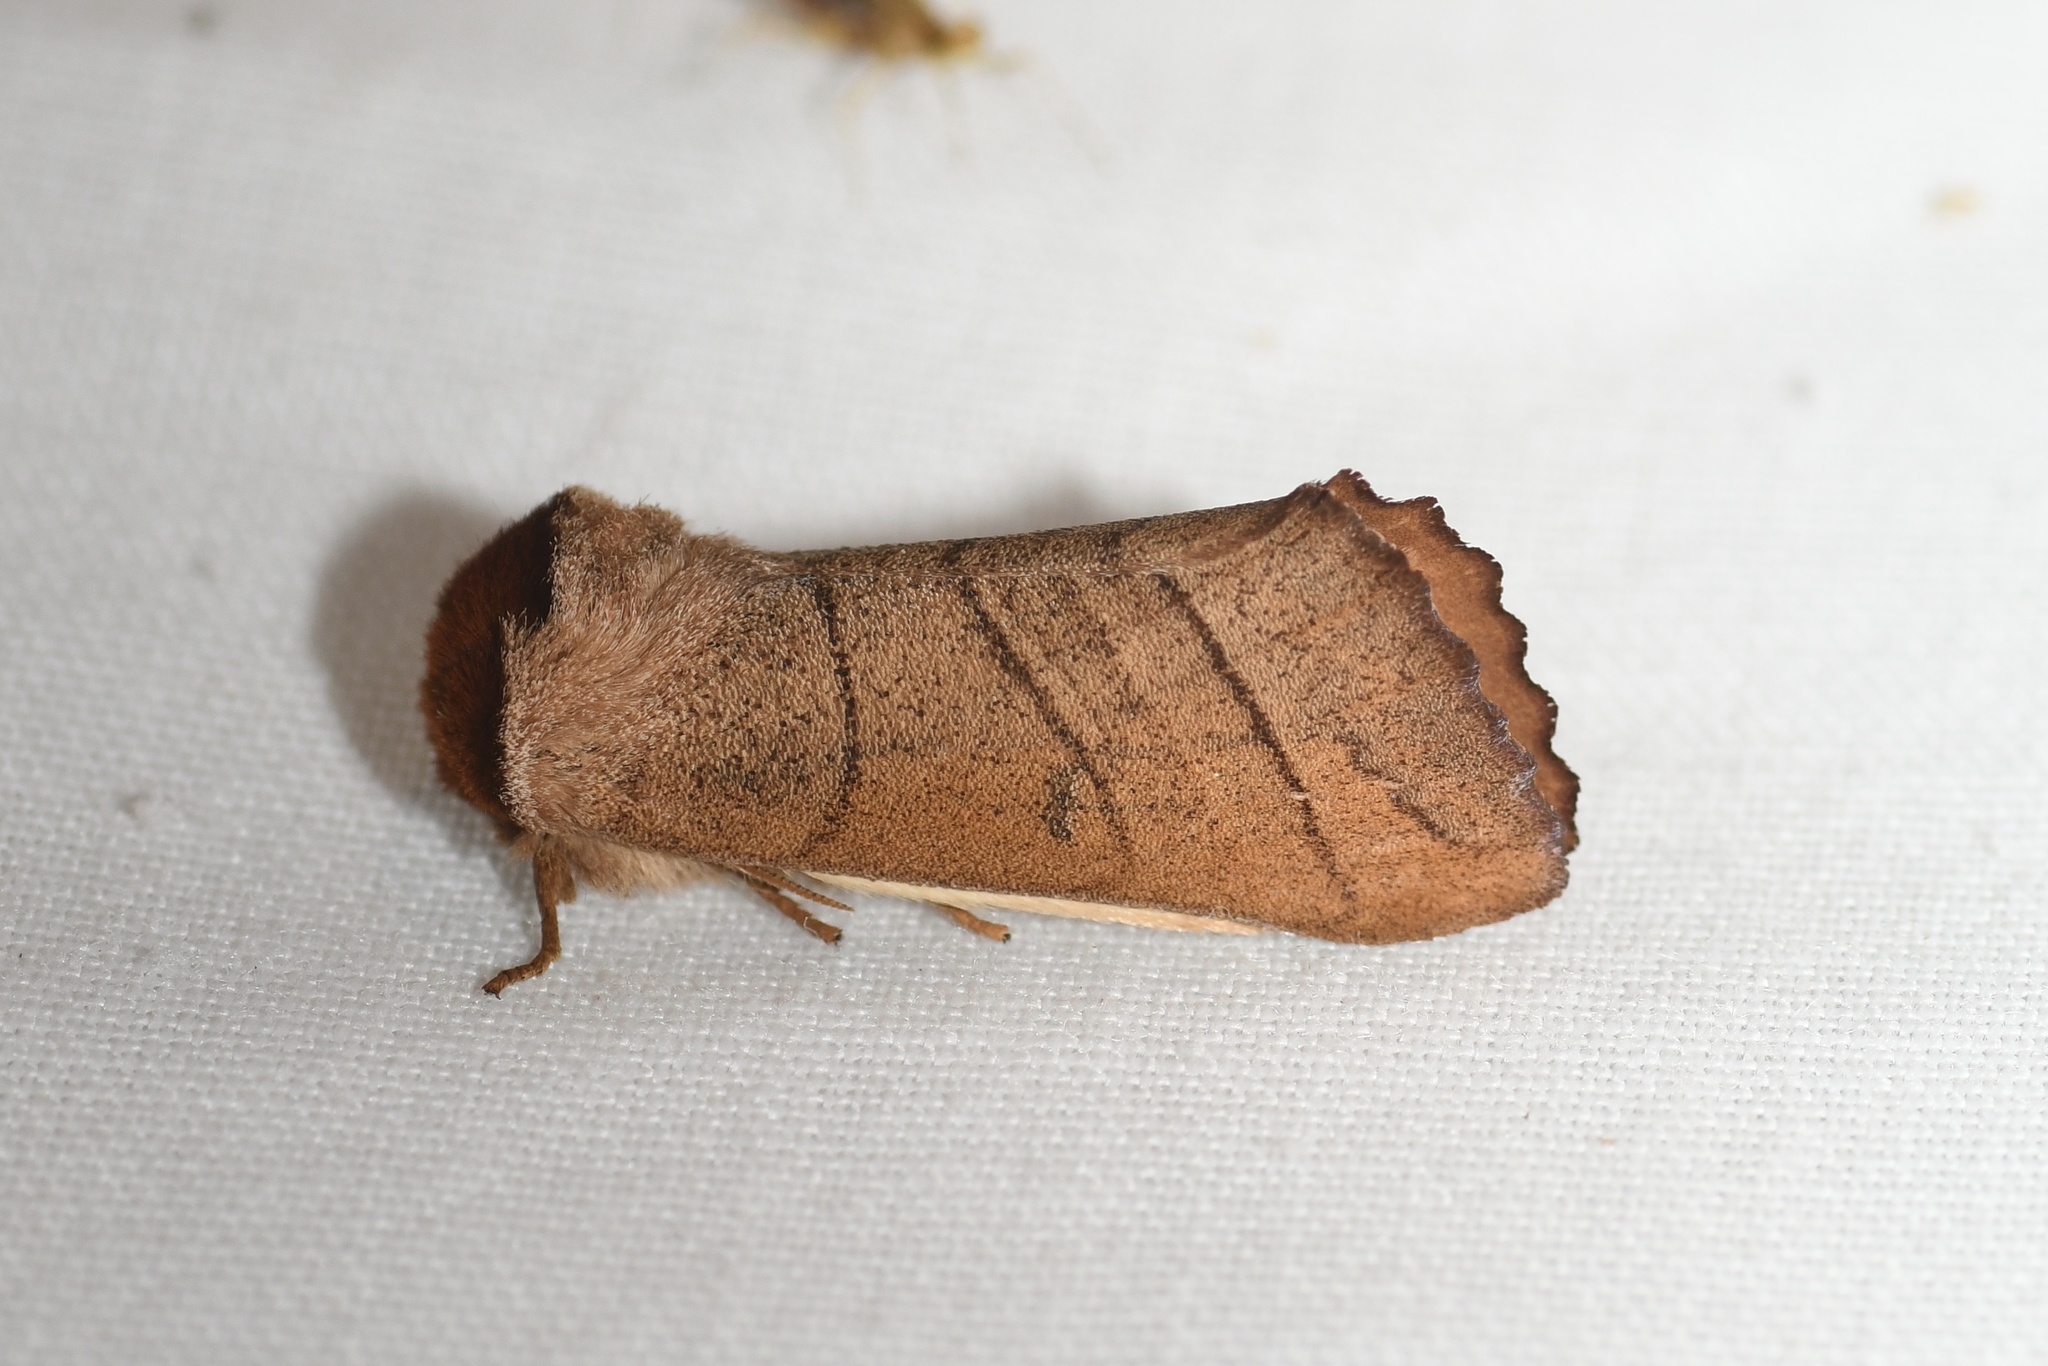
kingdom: Animalia
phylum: Arthropoda
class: Insecta
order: Lepidoptera
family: Notodontidae
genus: Datana
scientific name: Datana ministra
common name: Yellow-necked caterpillar moth
